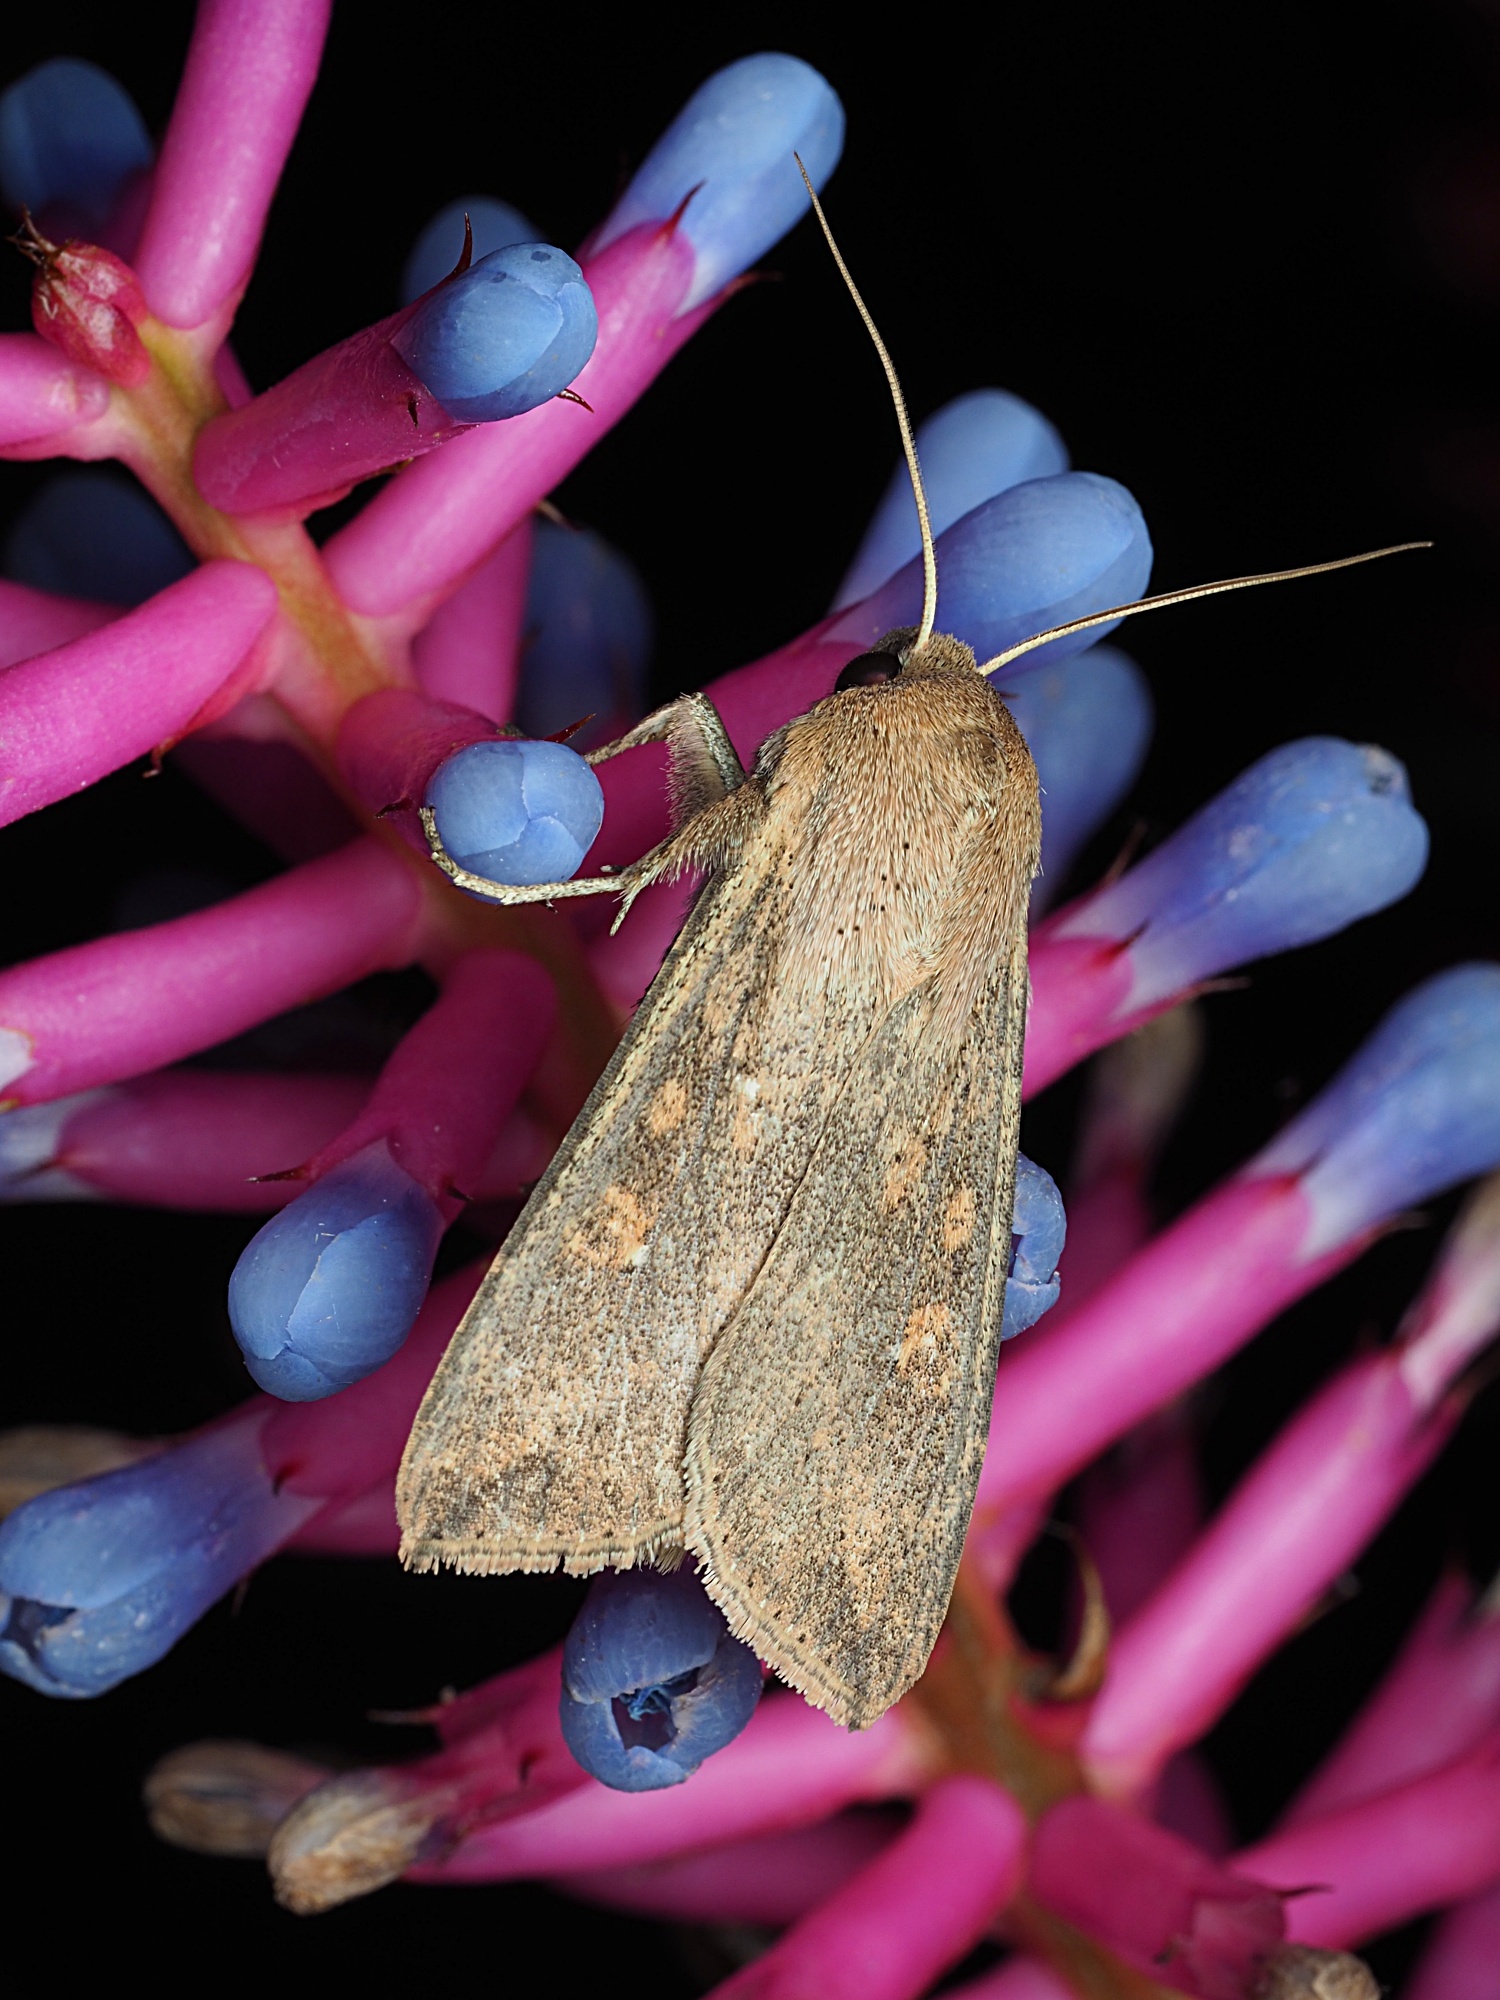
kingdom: Animalia
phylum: Arthropoda
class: Insecta
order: Lepidoptera
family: Noctuidae
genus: Mythimna
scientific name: Mythimna separata
